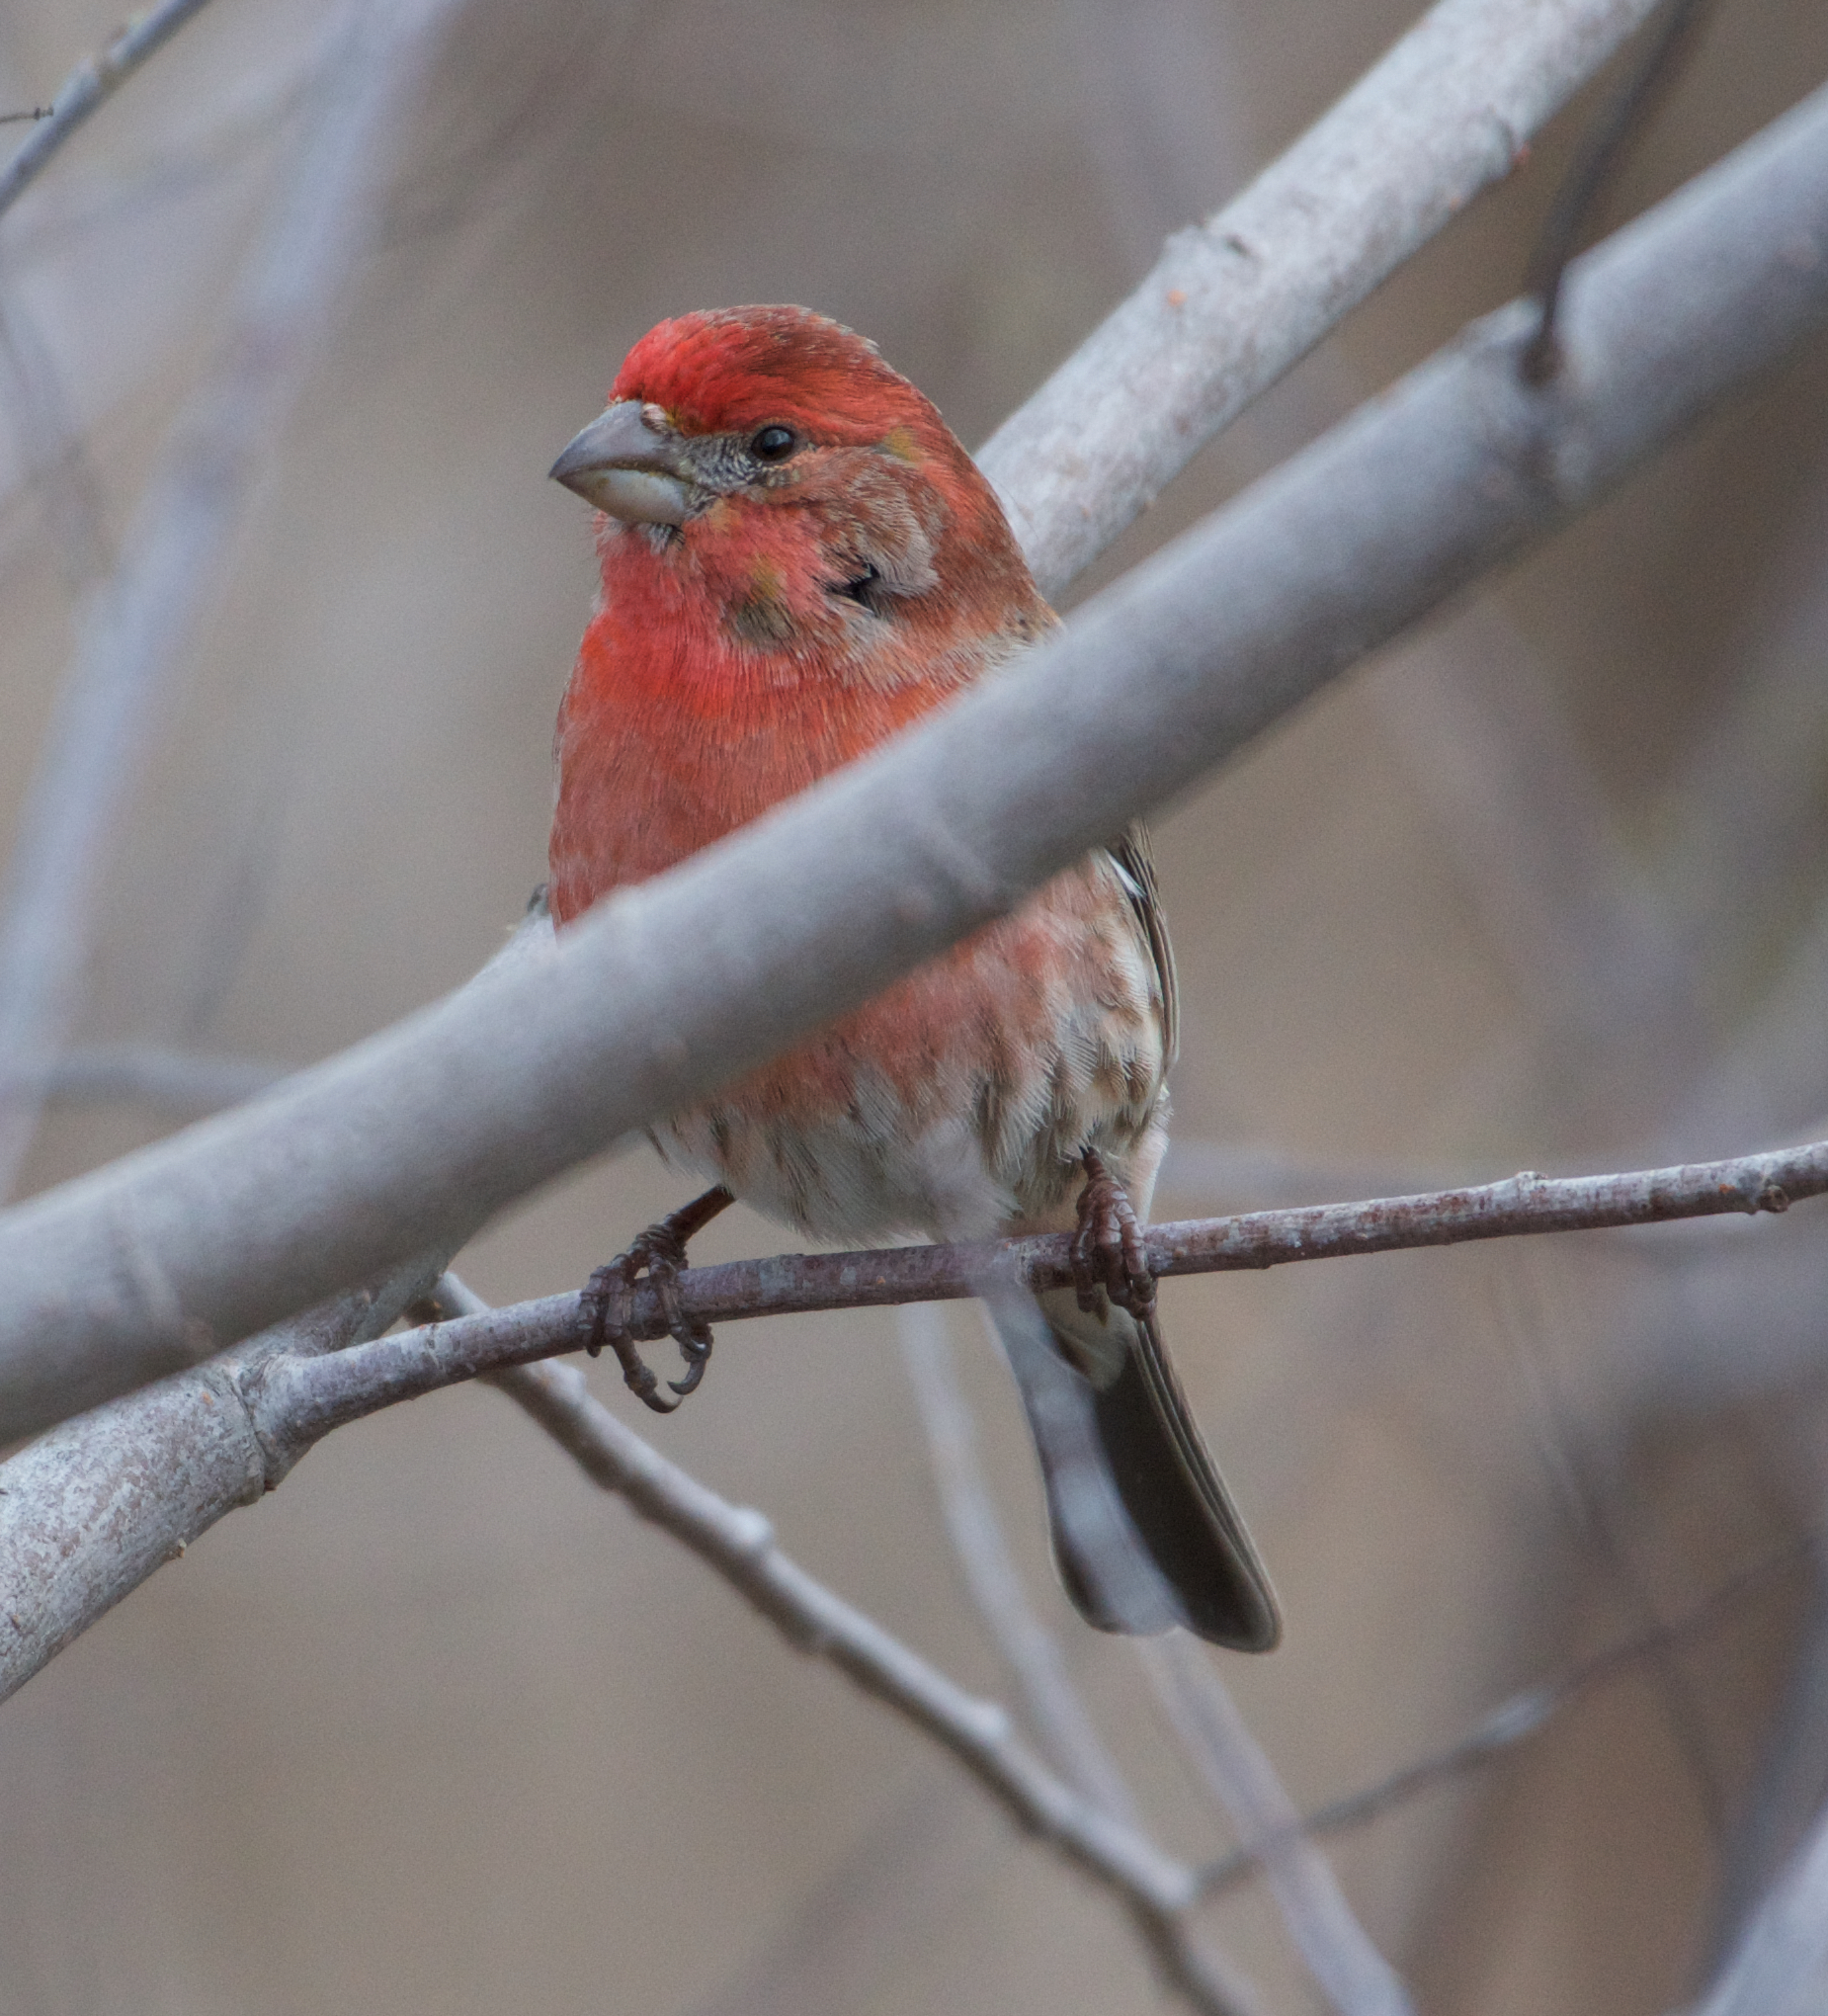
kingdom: Animalia
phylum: Chordata
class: Aves
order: Passeriformes
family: Fringillidae
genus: Haemorhous
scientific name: Haemorhous mexicanus
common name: House finch
